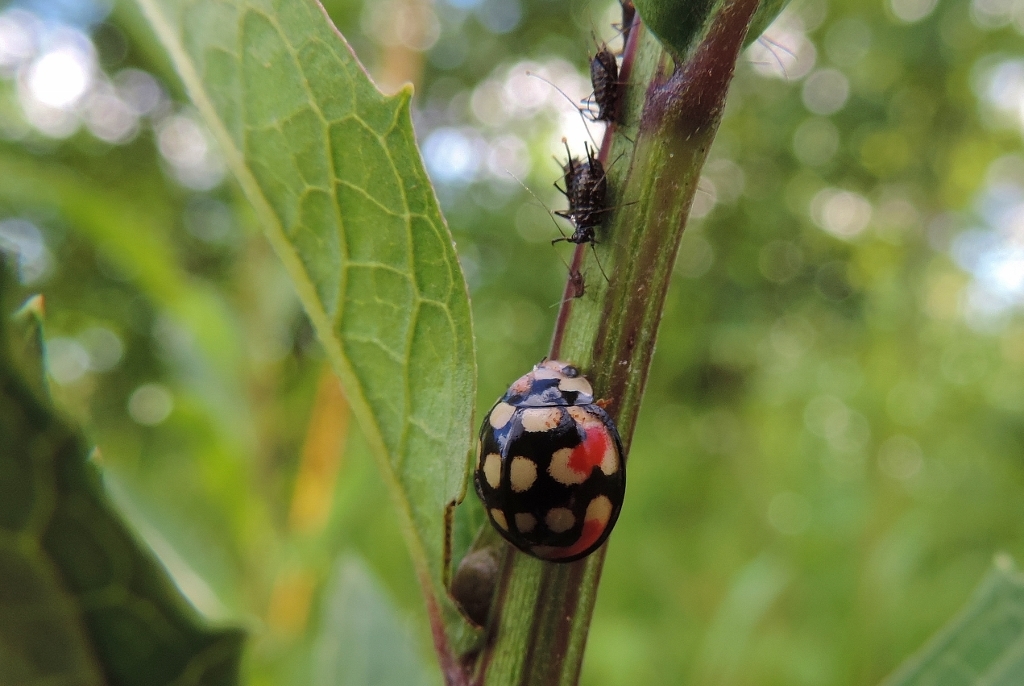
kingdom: Animalia
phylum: Arthropoda
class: Insecta
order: Coleoptera
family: Coccinellidae
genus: Cheilomenes
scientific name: Cheilomenes sulphurea
